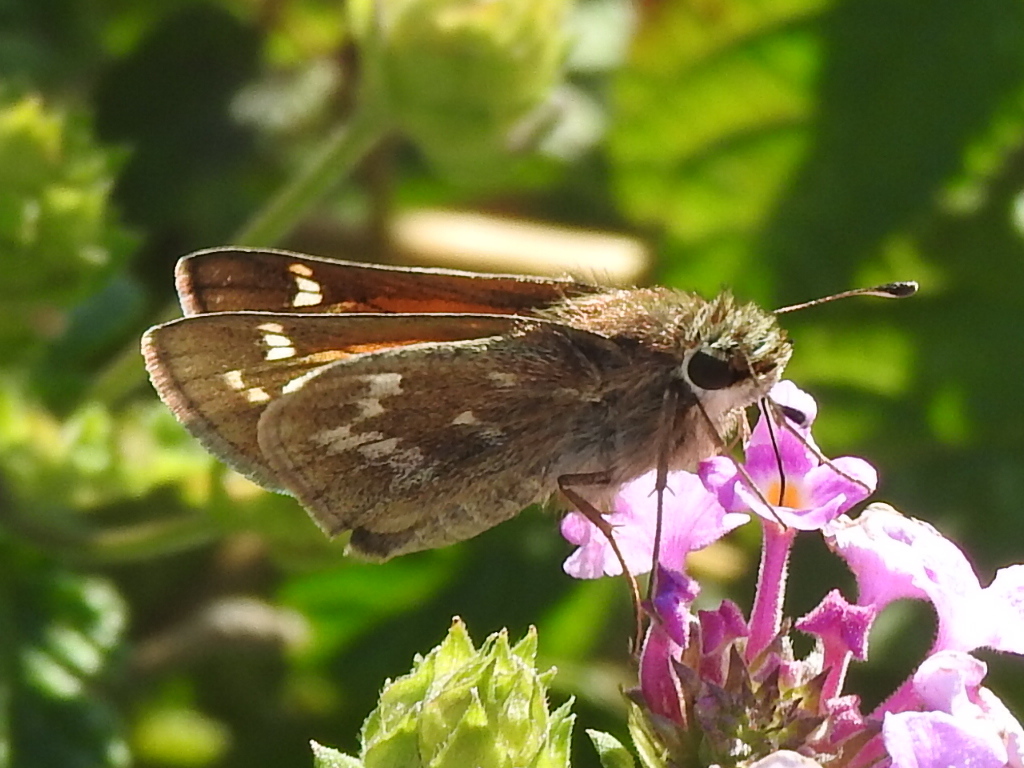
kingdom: Animalia
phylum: Arthropoda
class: Insecta
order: Lepidoptera
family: Hesperiidae
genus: Atalopedes
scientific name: Atalopedes
